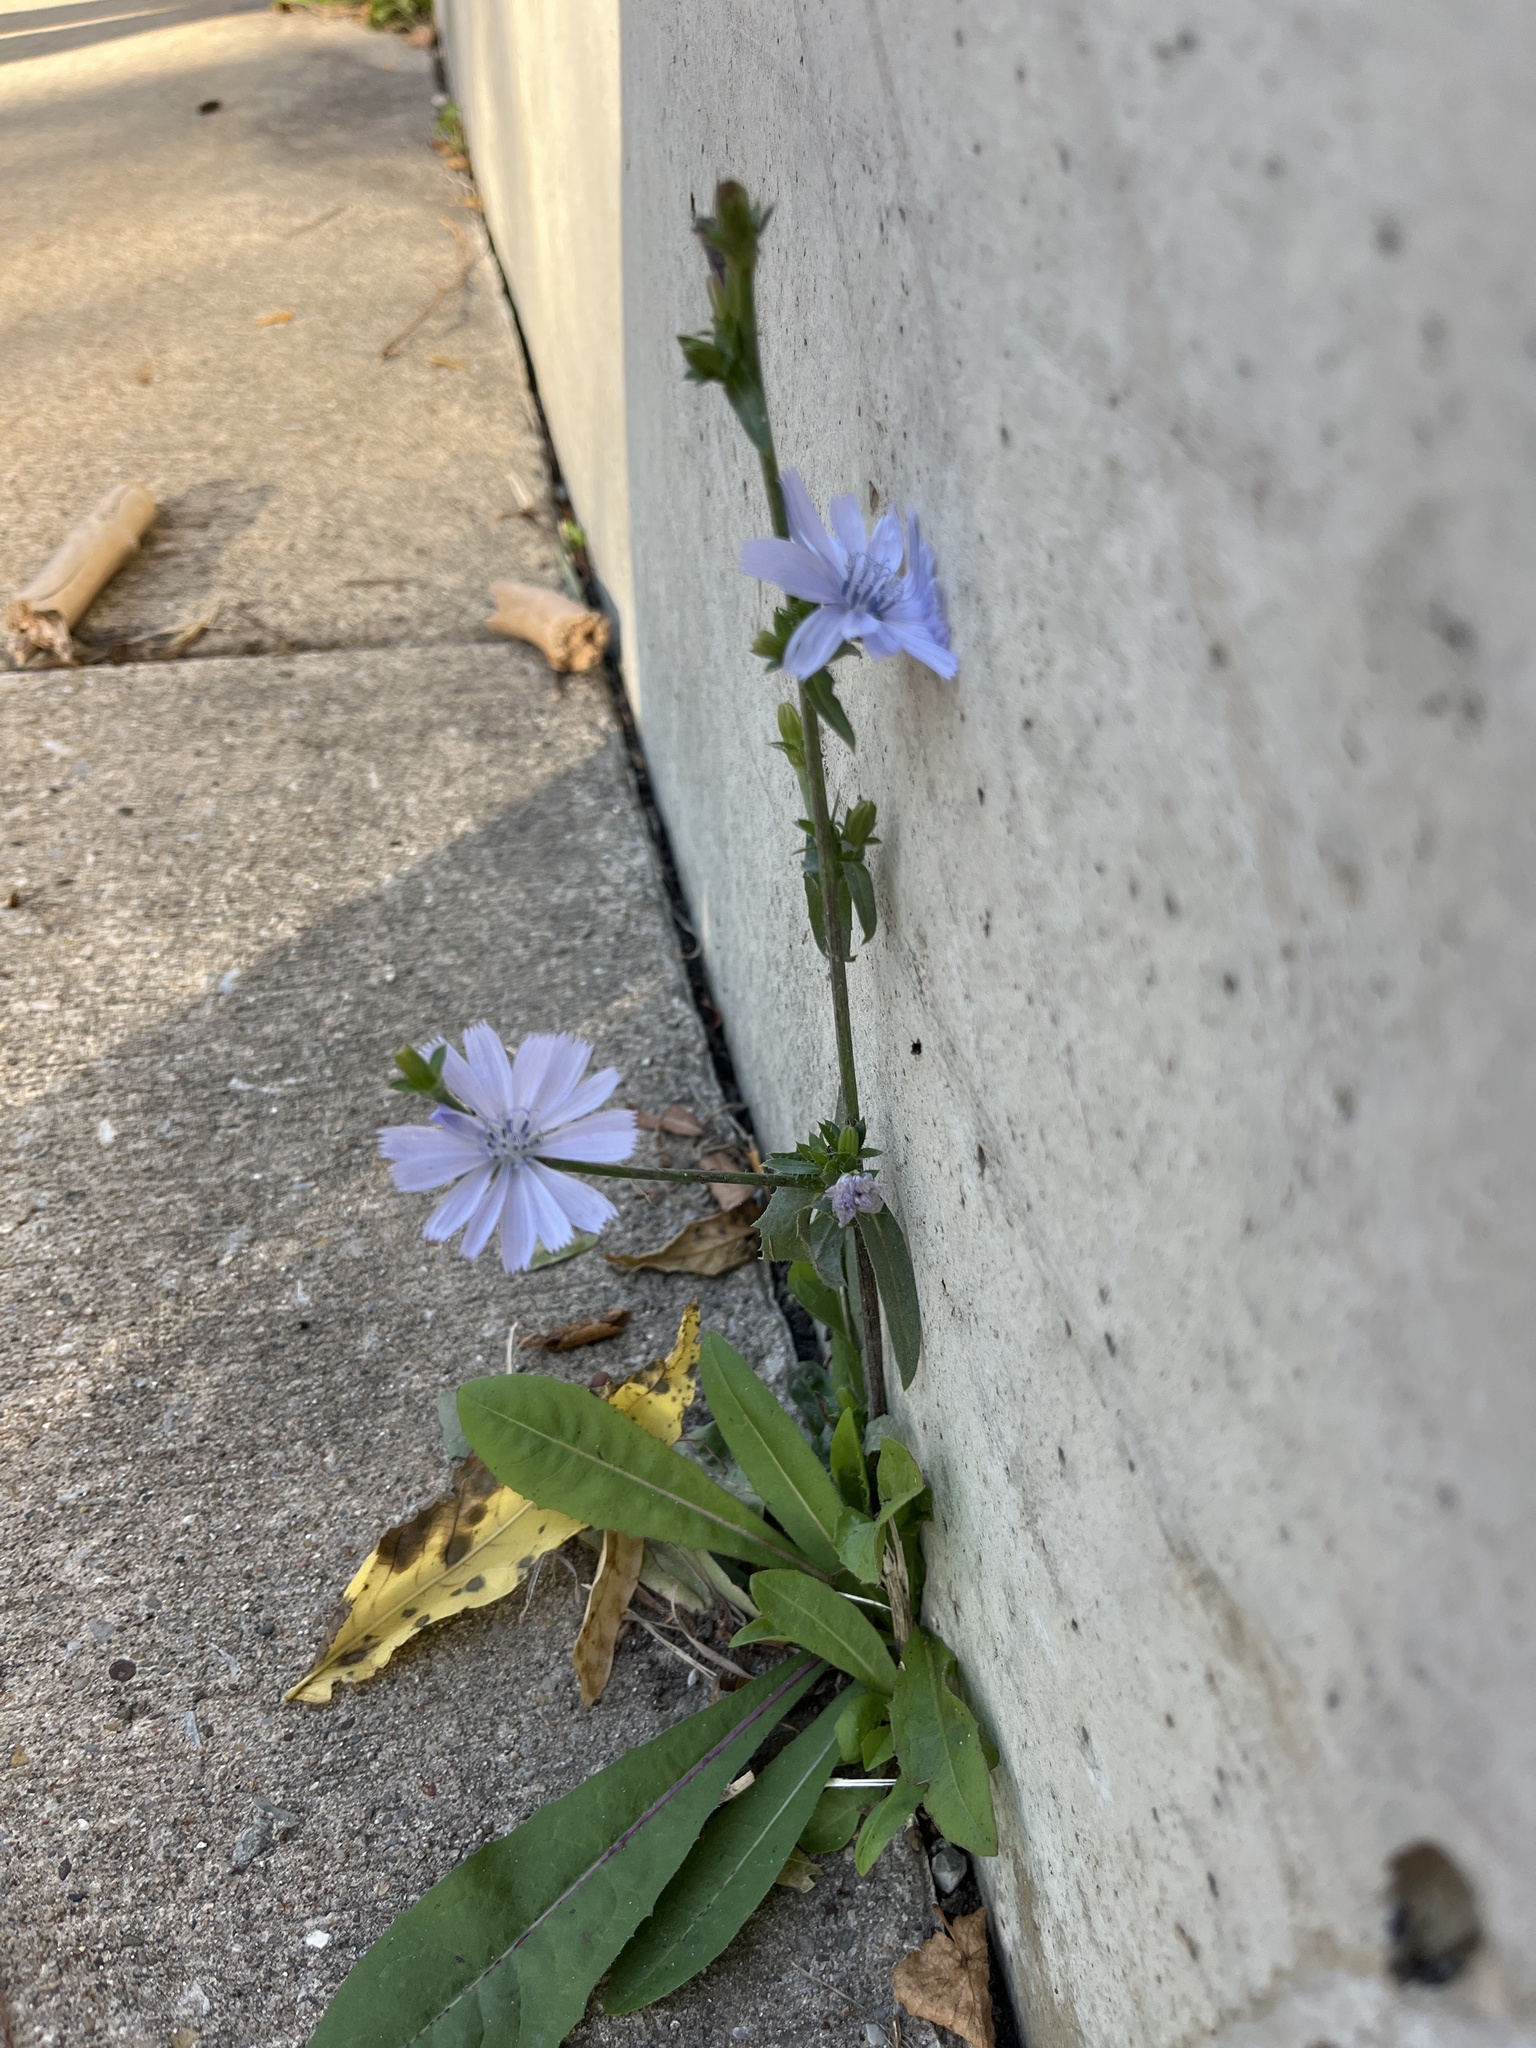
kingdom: Plantae
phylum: Tracheophyta
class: Magnoliopsida
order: Asterales
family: Asteraceae
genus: Cichorium
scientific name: Cichorium intybus
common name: Chicory
